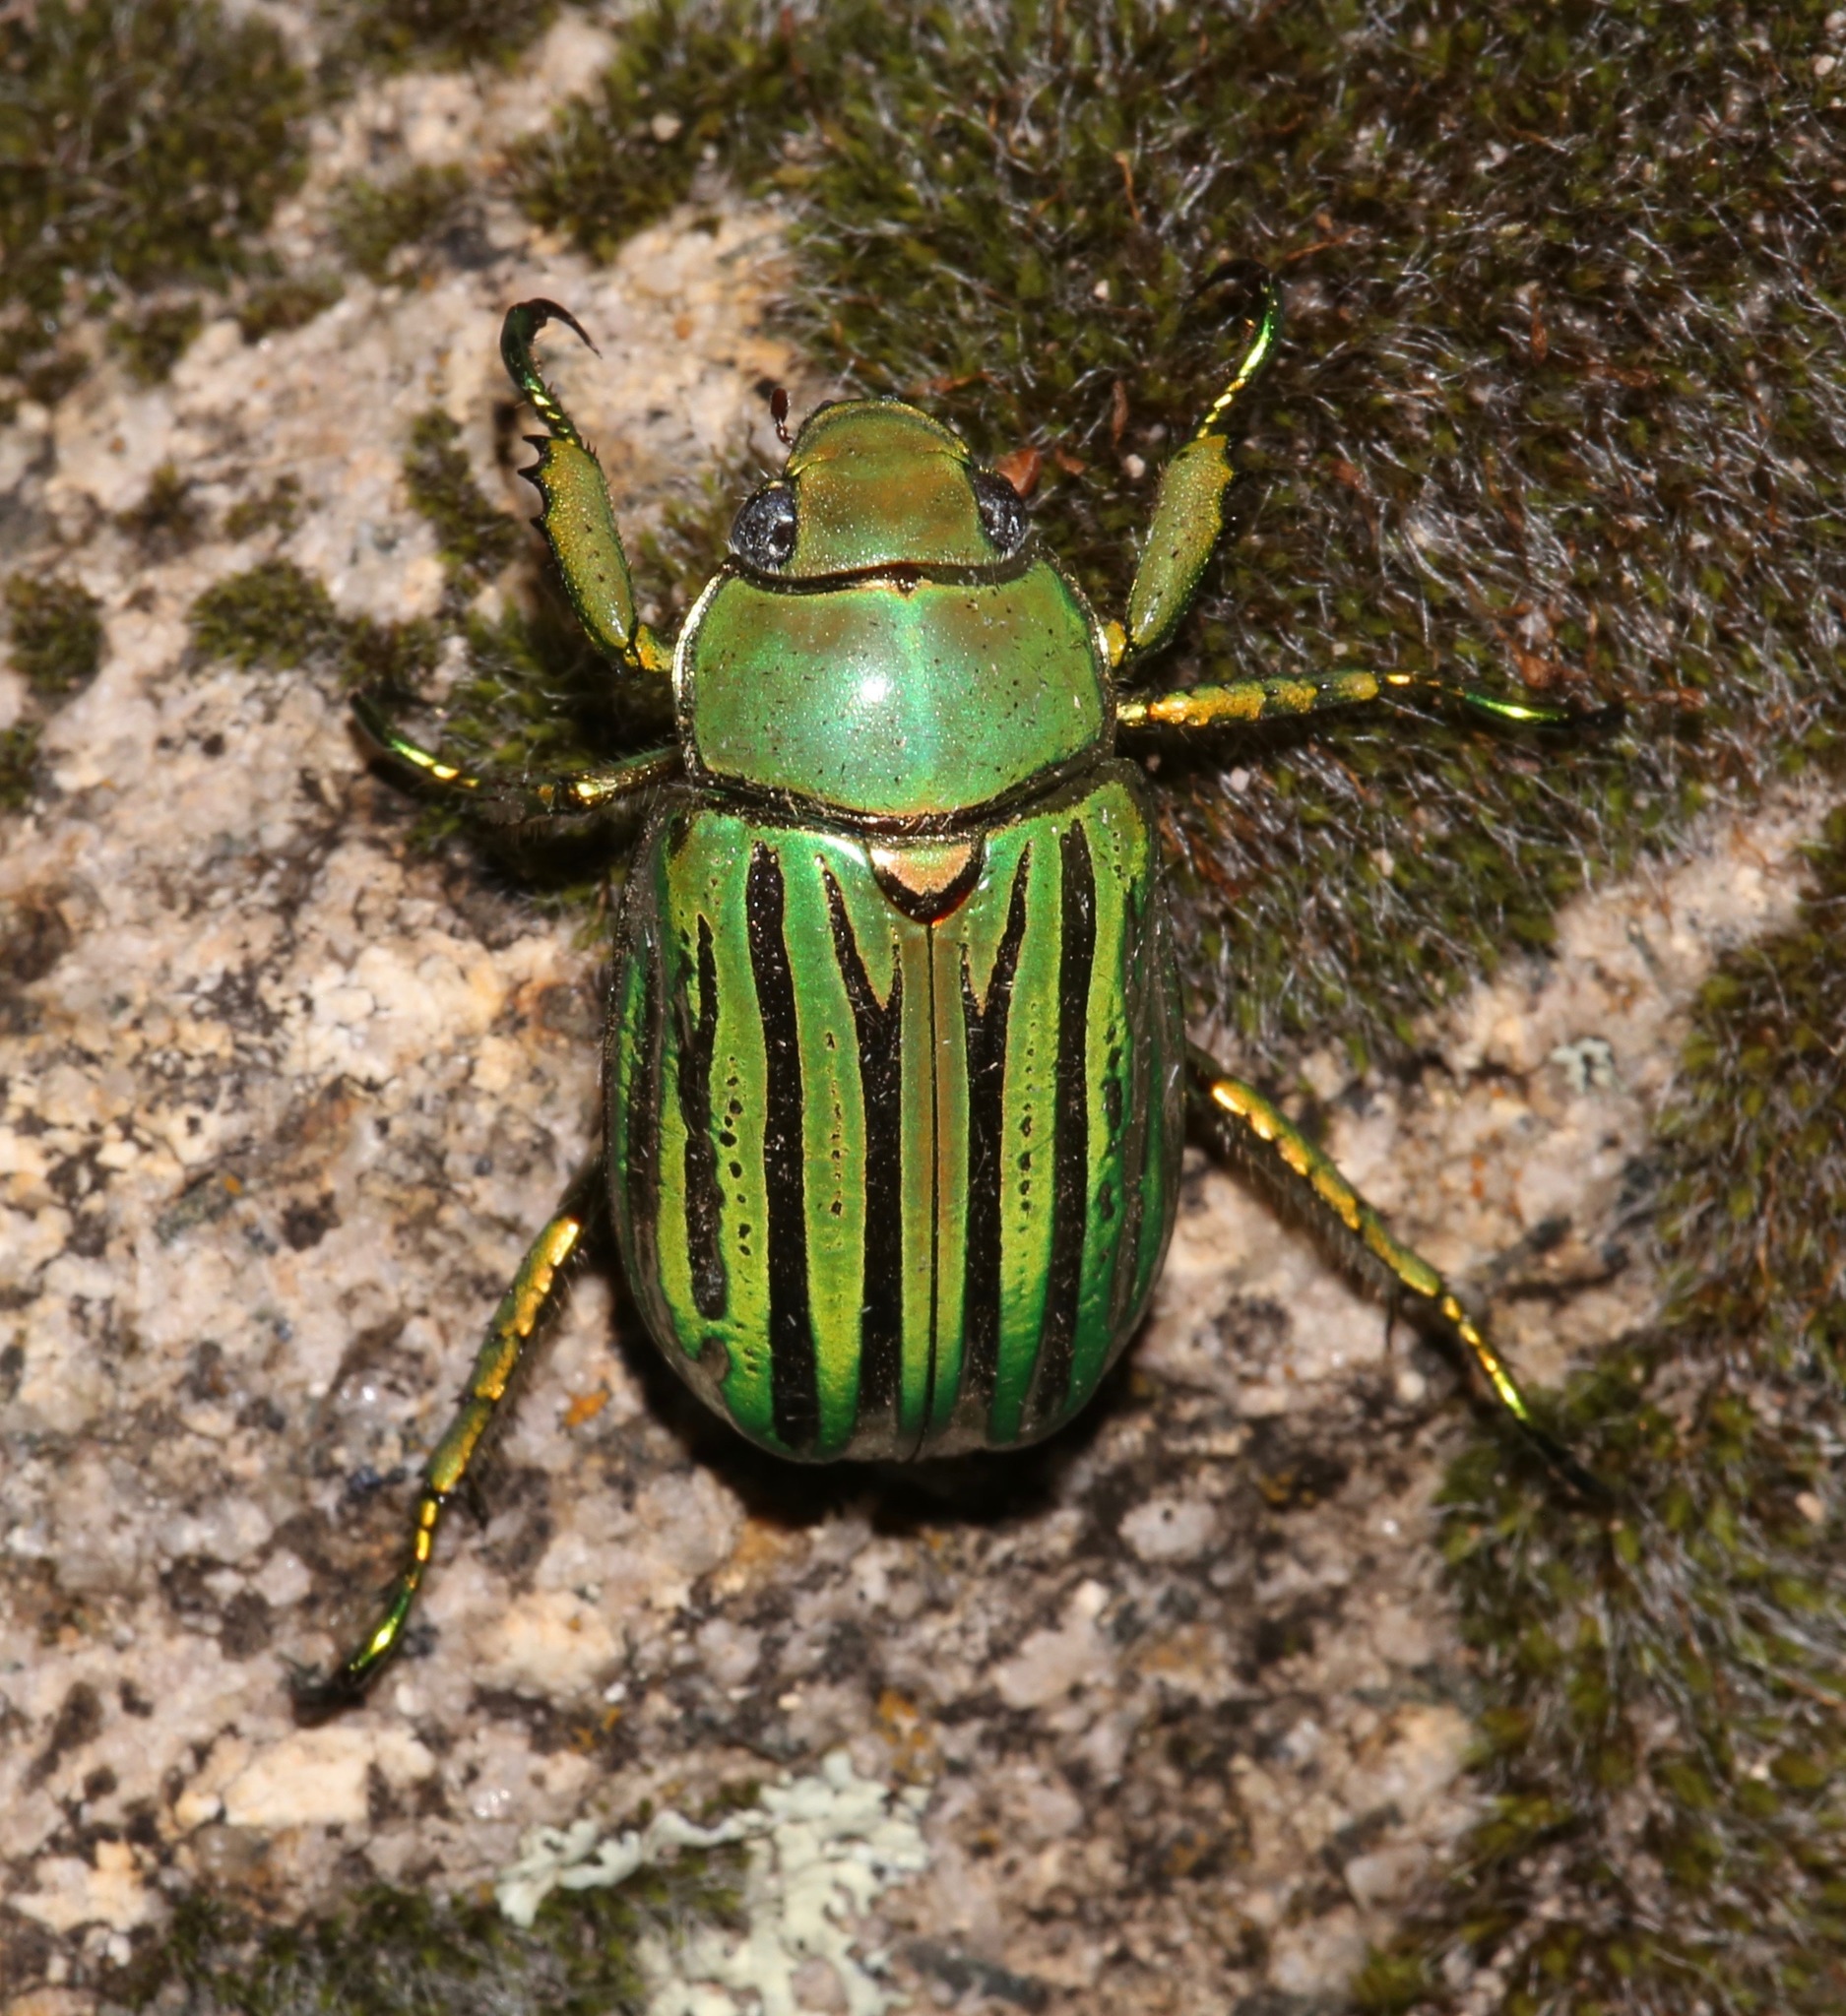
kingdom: Animalia
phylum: Arthropoda
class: Insecta
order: Coleoptera
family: Scarabaeidae
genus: Chrysina
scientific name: Chrysina gloriosa
